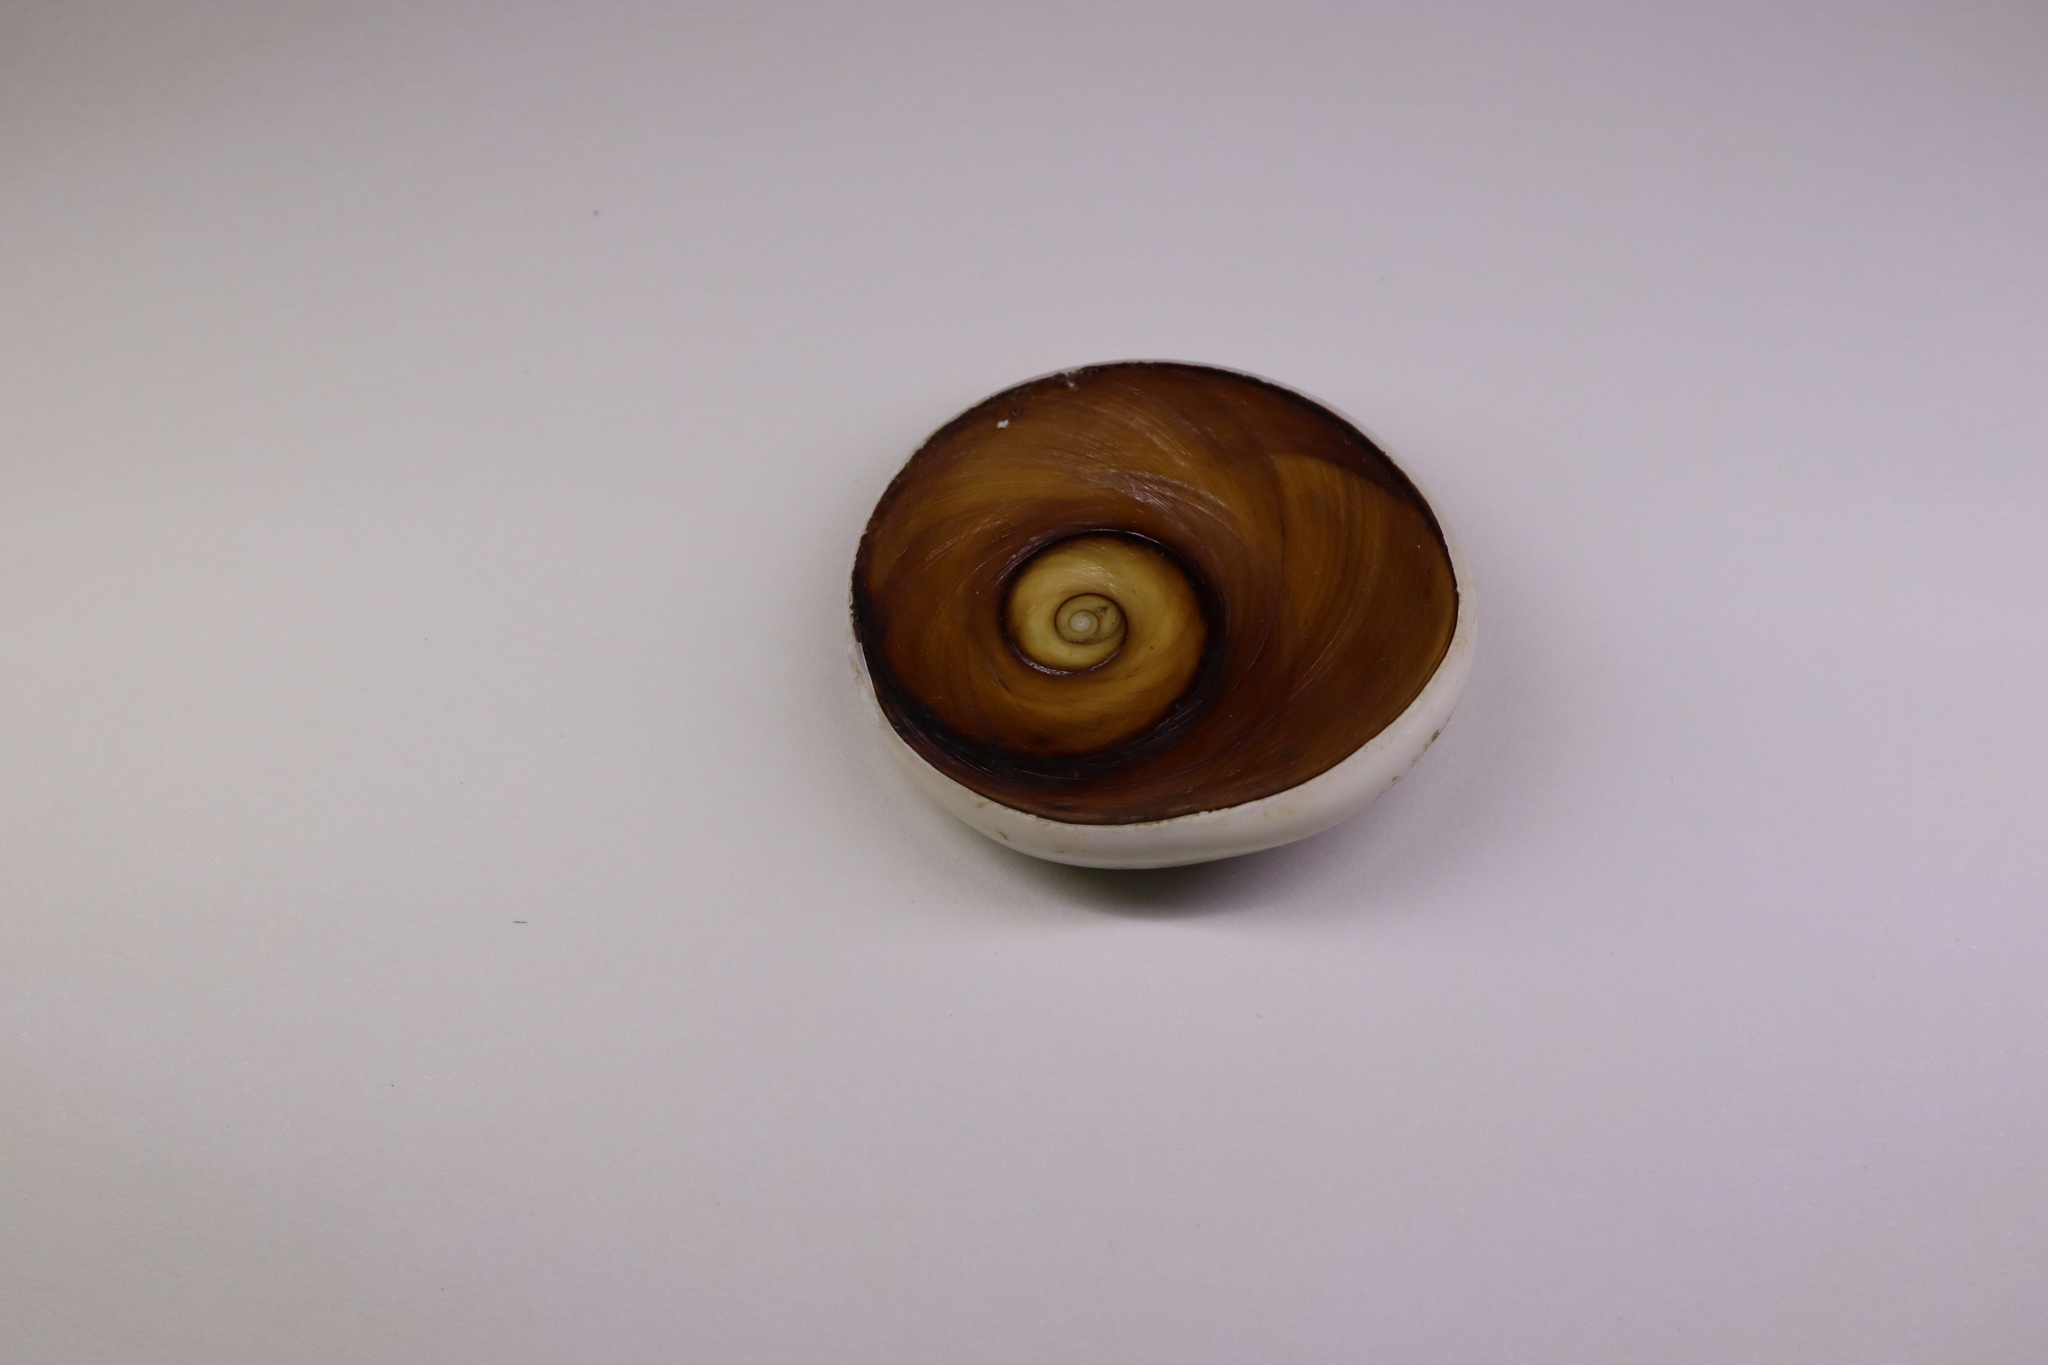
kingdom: Animalia
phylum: Mollusca
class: Gastropoda
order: Trochida
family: Turbinidae
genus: Turbo
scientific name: Turbo sazae
